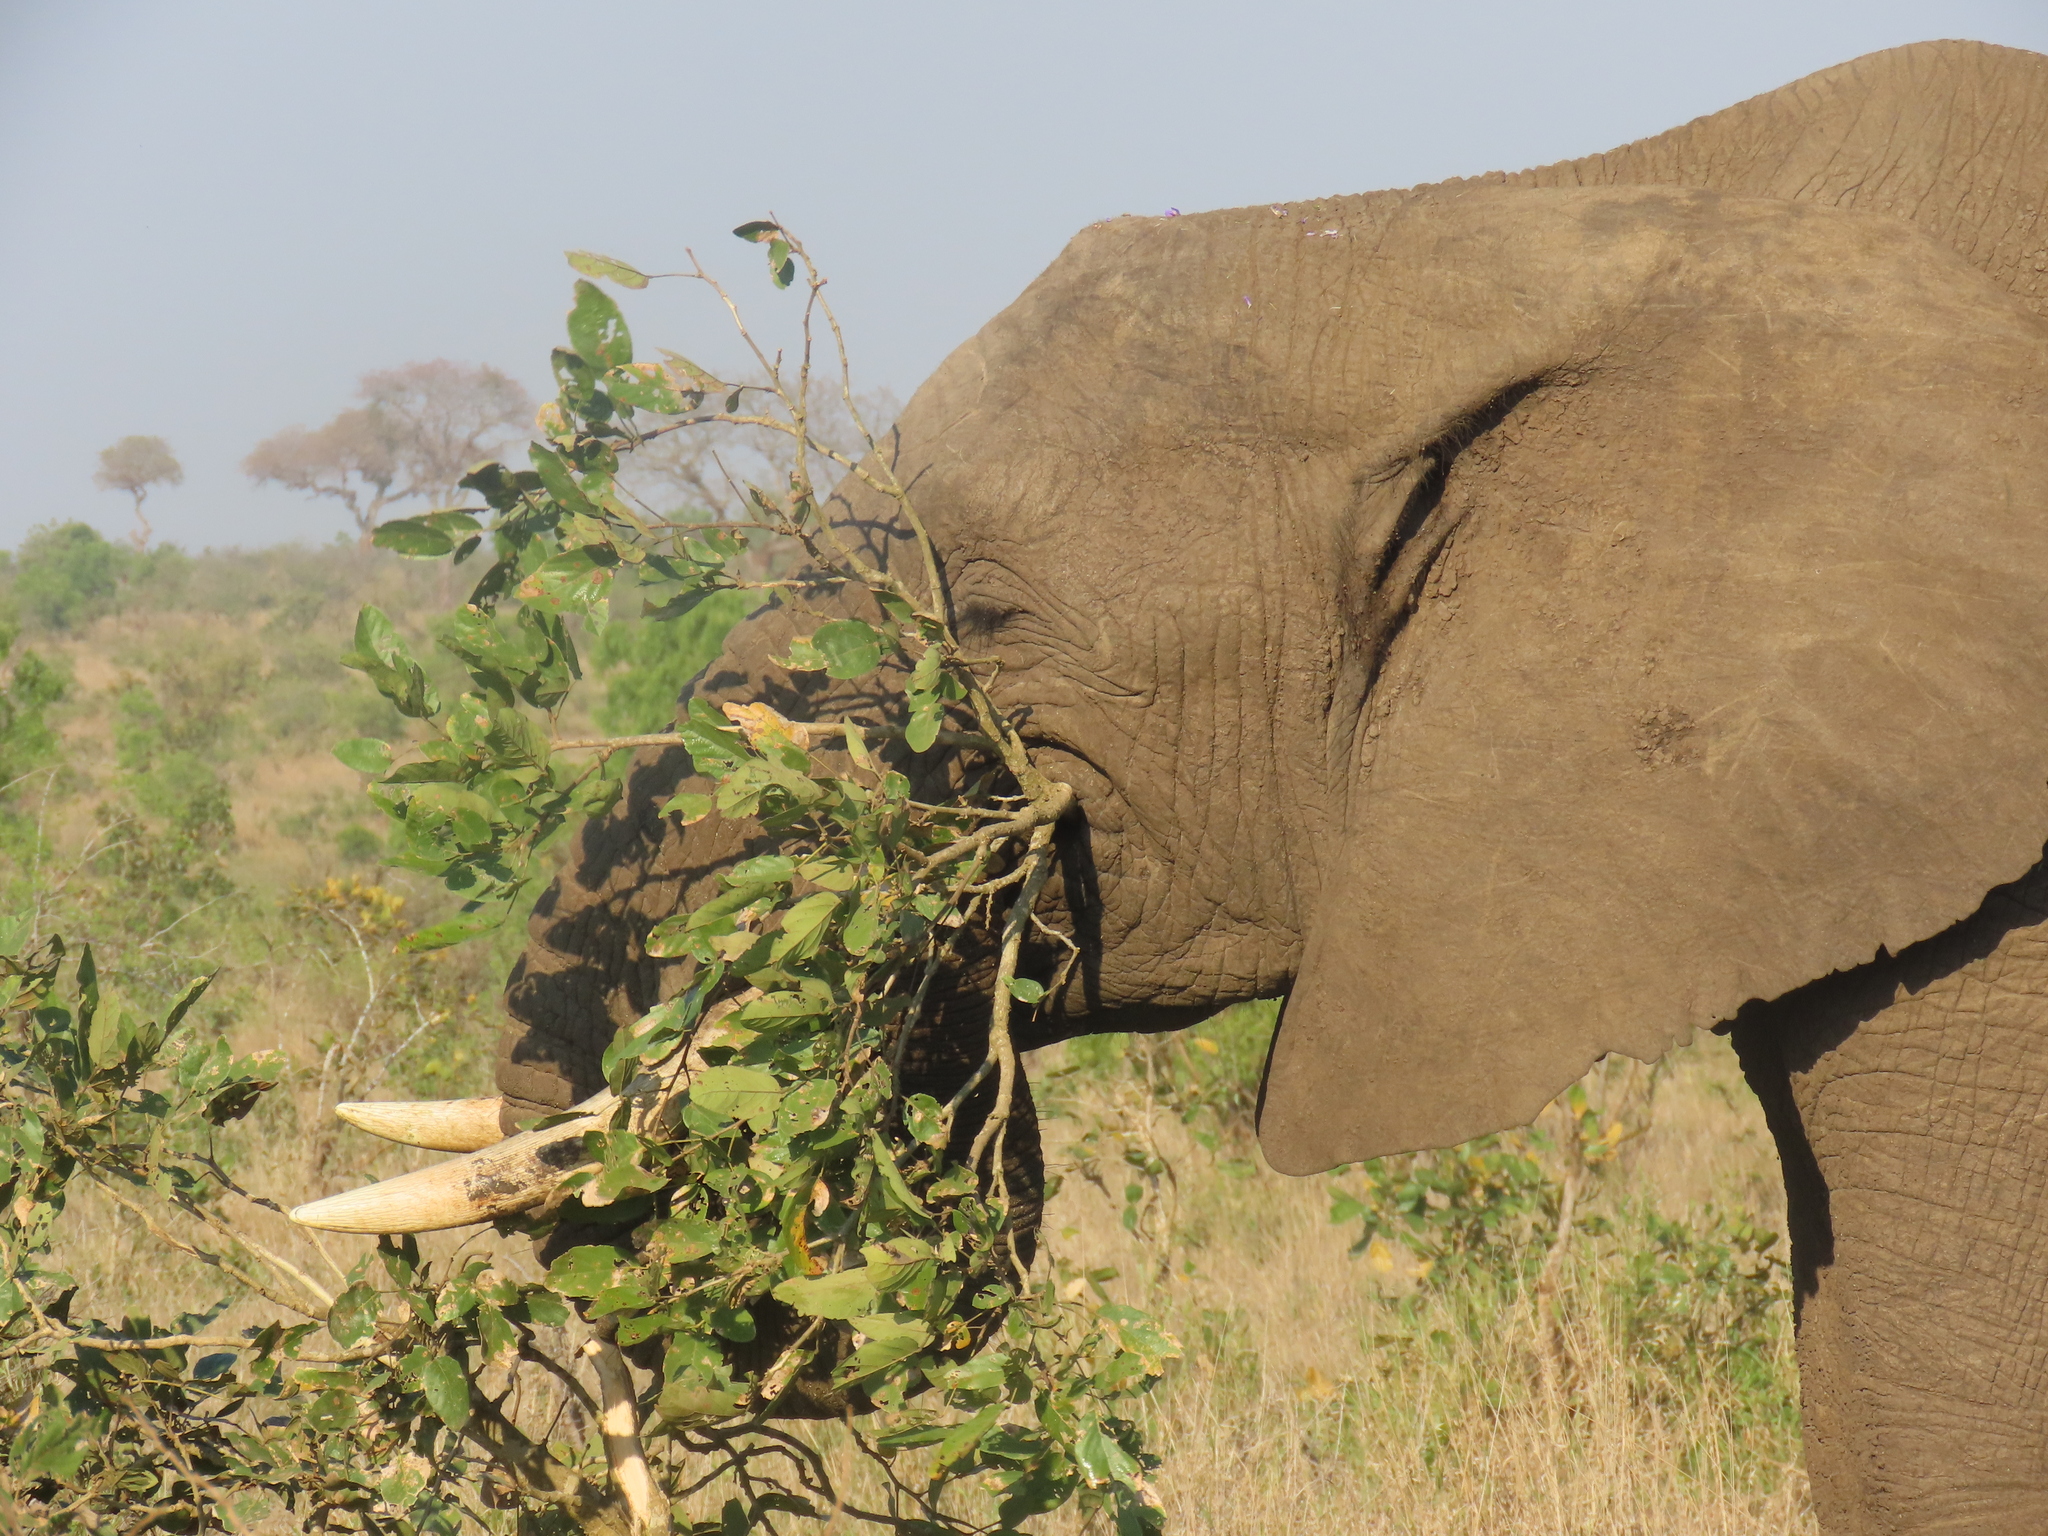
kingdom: Animalia
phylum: Chordata
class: Mammalia
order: Proboscidea
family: Elephantidae
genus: Loxodonta
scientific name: Loxodonta africana
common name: African elephant
